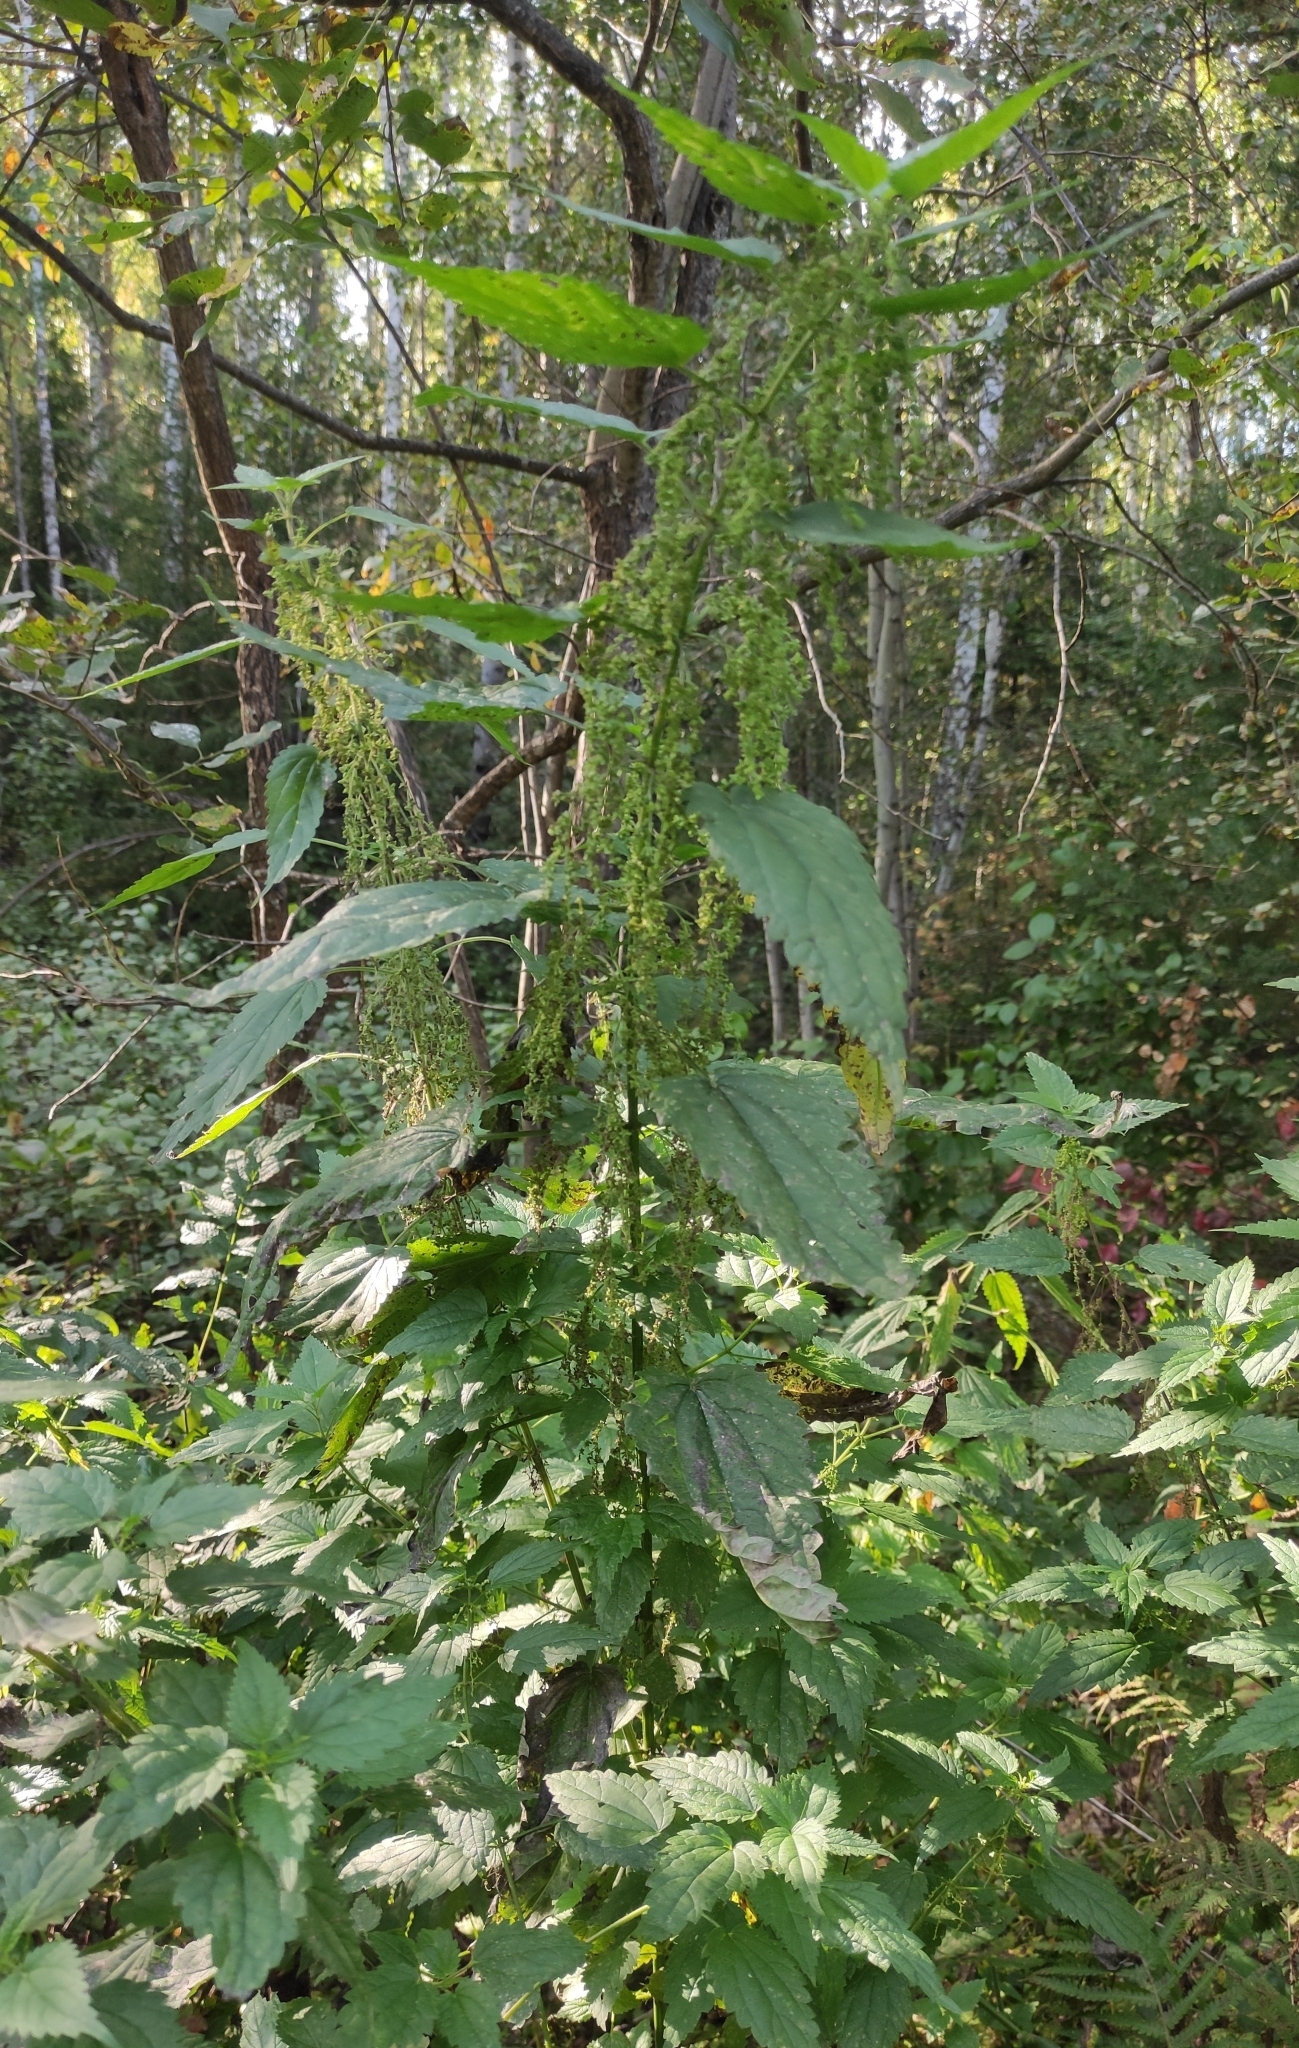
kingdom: Plantae
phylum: Tracheophyta
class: Magnoliopsida
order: Rosales
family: Urticaceae
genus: Urtica
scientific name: Urtica dioica
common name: Common nettle
